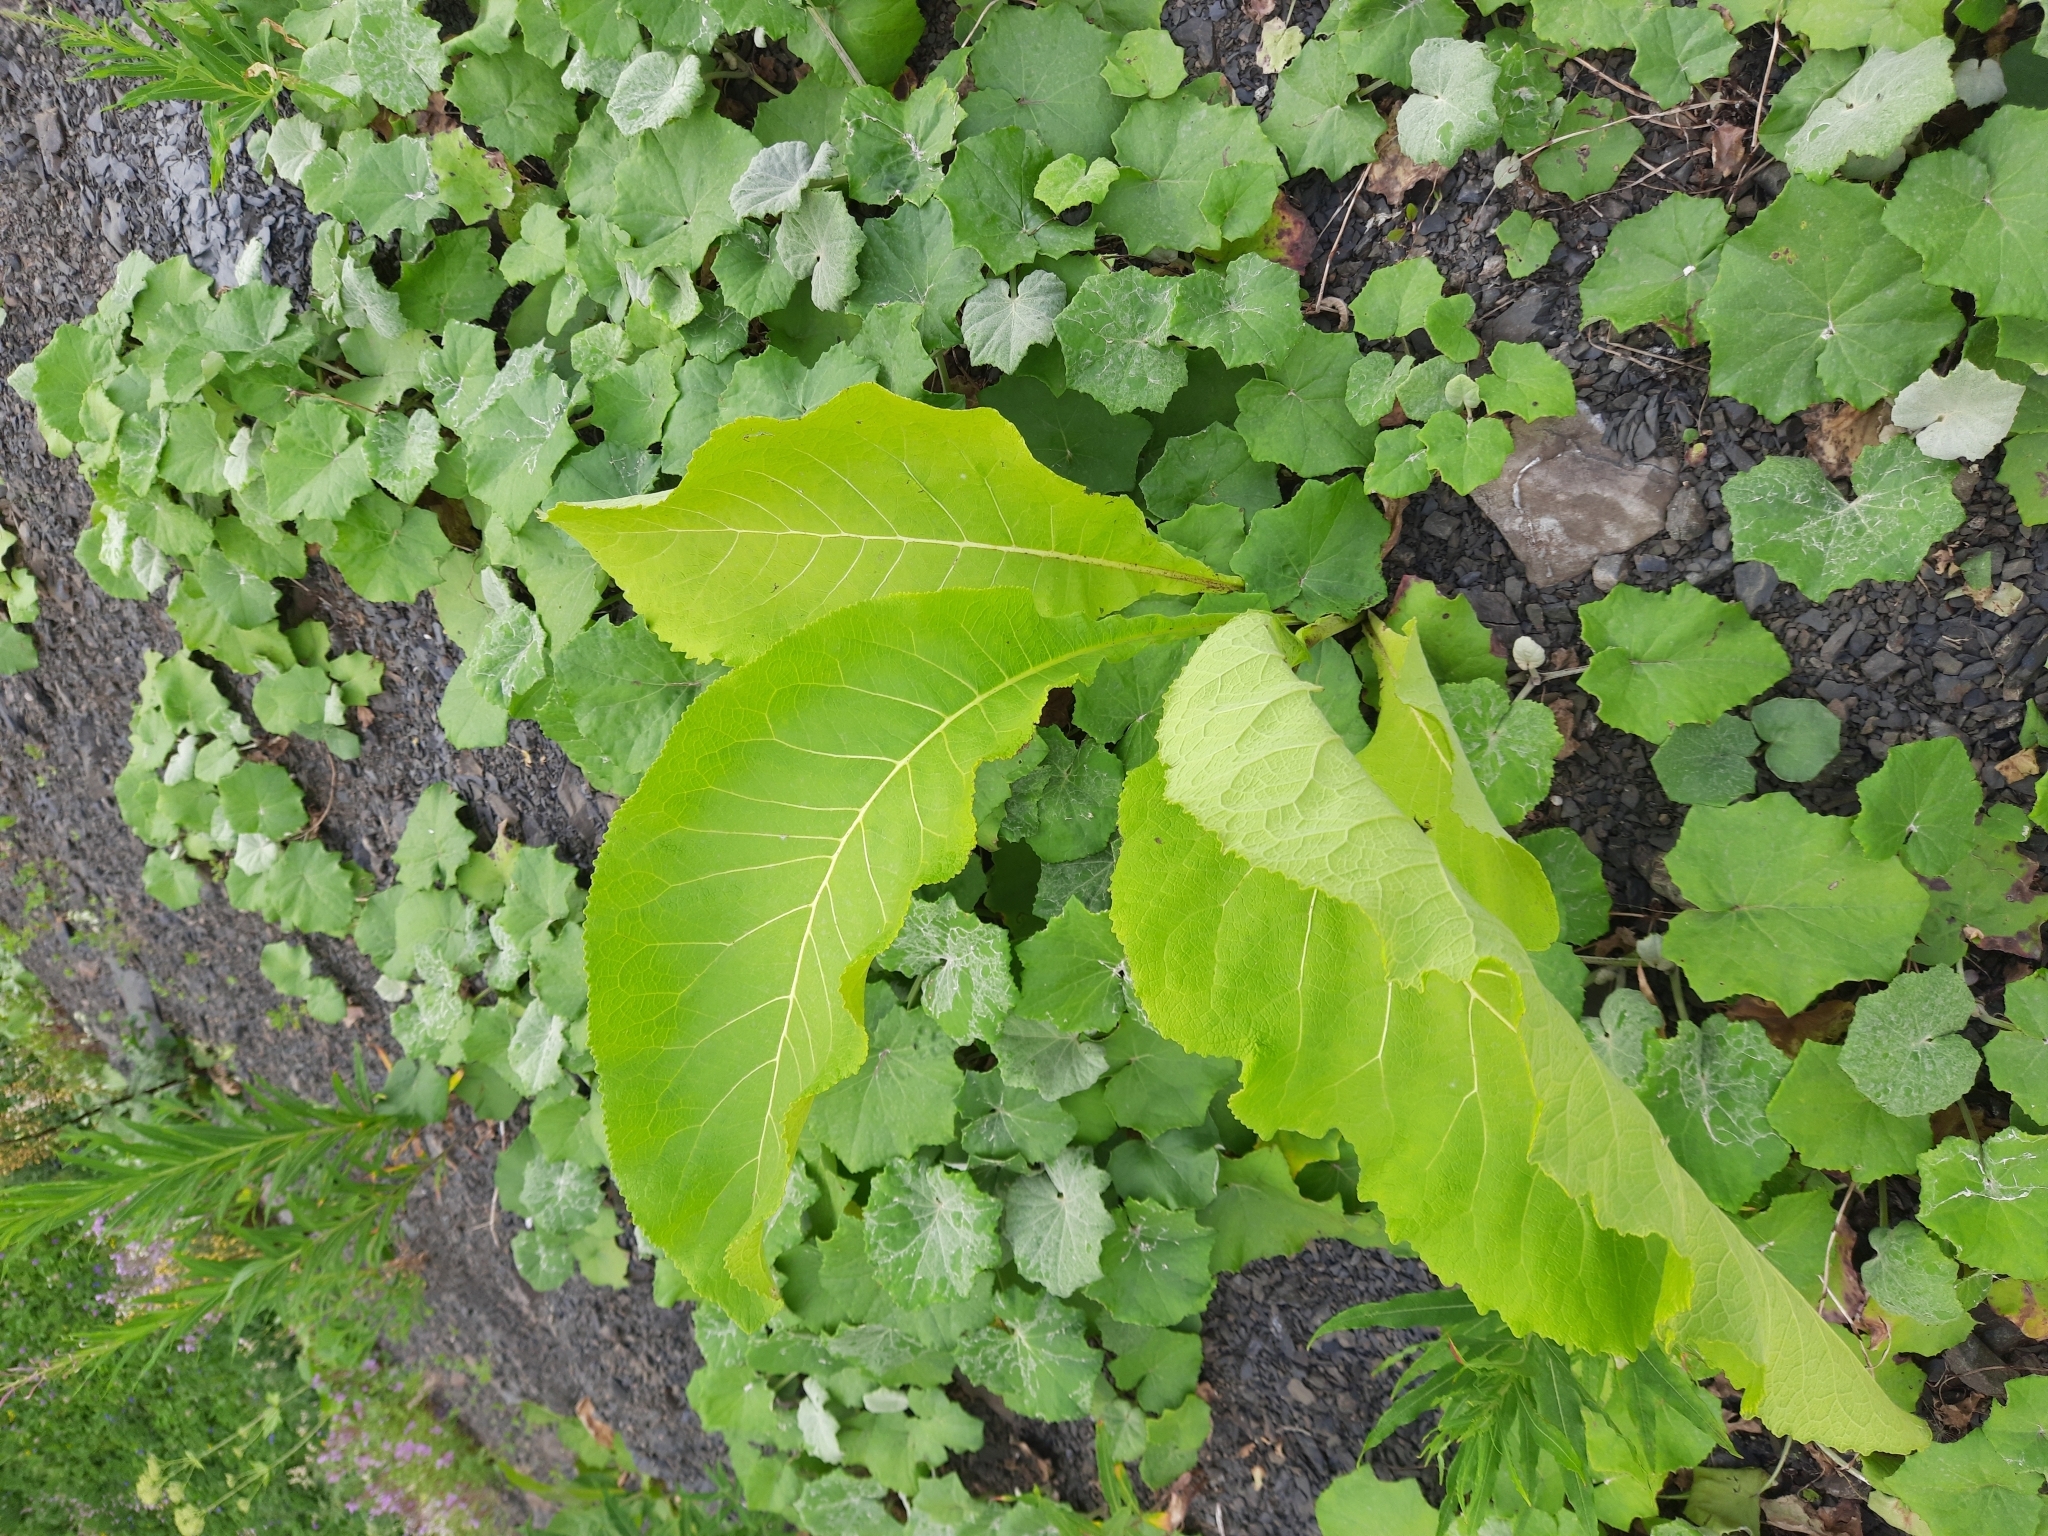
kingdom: Plantae
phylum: Tracheophyta
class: Magnoliopsida
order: Asterales
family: Asteraceae
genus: Inula
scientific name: Inula helenium
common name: Elecampane
